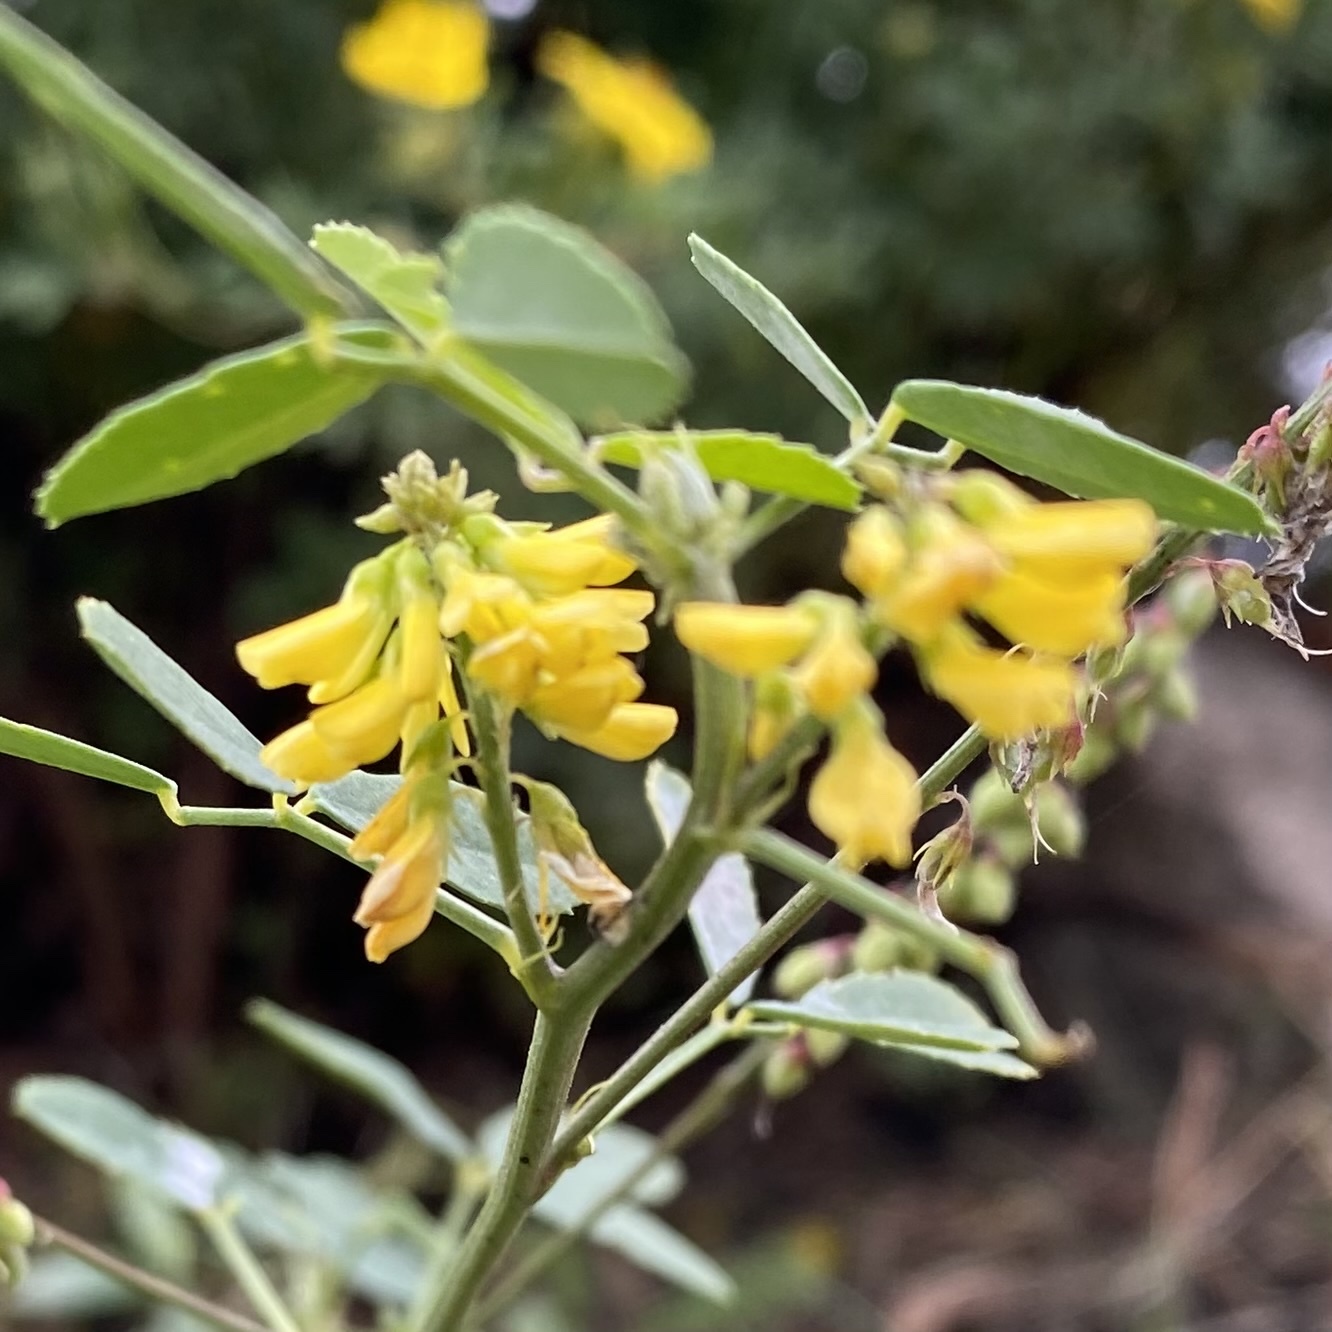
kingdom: Plantae
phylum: Tracheophyta
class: Magnoliopsida
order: Fabales
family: Fabaceae
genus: Melilotus
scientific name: Melilotus officinalis
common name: Sweetclover
